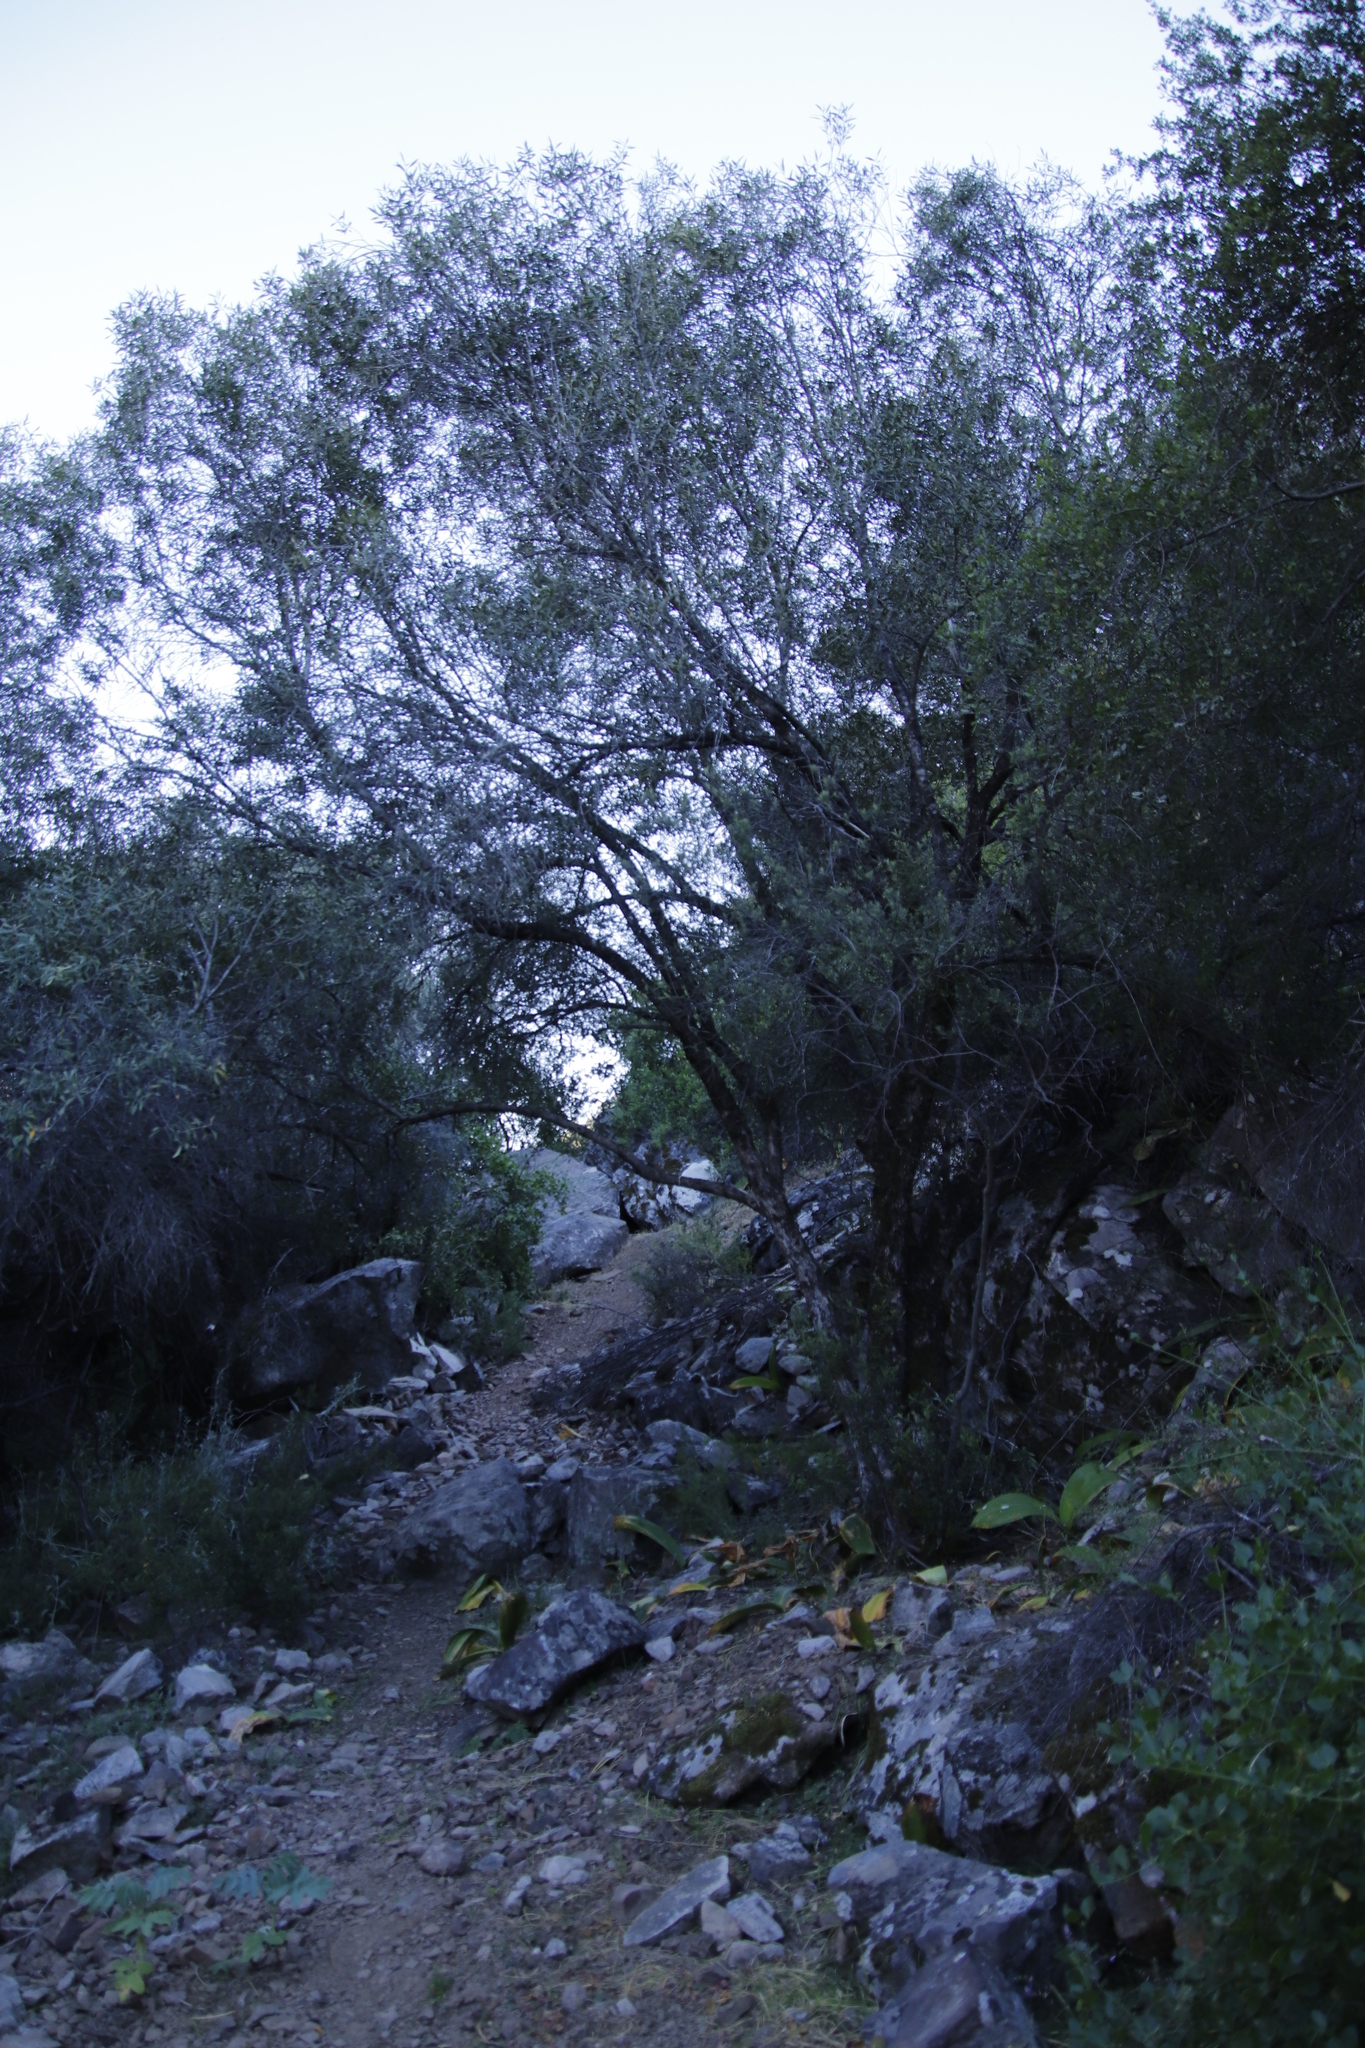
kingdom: Plantae
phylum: Tracheophyta
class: Magnoliopsida
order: Lamiales
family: Oleaceae
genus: Olea
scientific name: Olea europaea
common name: Olive
